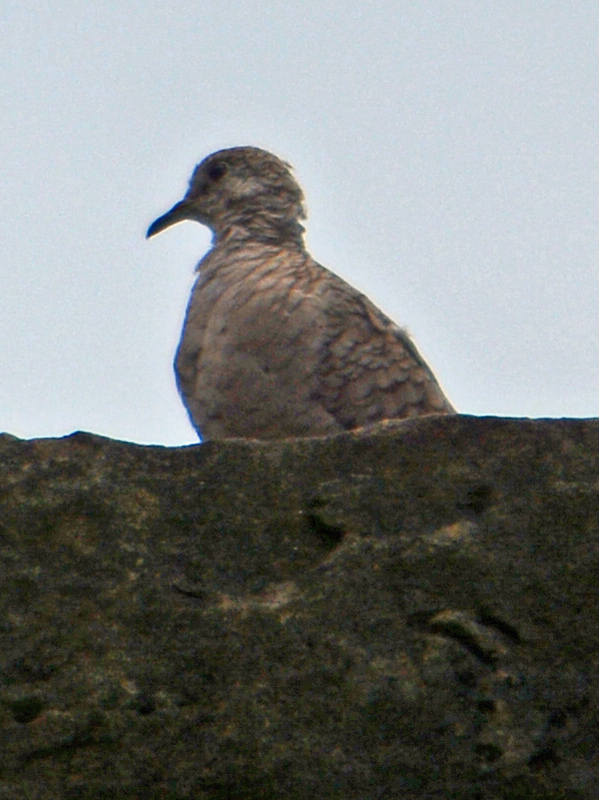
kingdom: Animalia
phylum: Chordata
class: Aves
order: Columbiformes
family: Columbidae
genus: Columbina
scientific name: Columbina inca
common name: Inca dove
